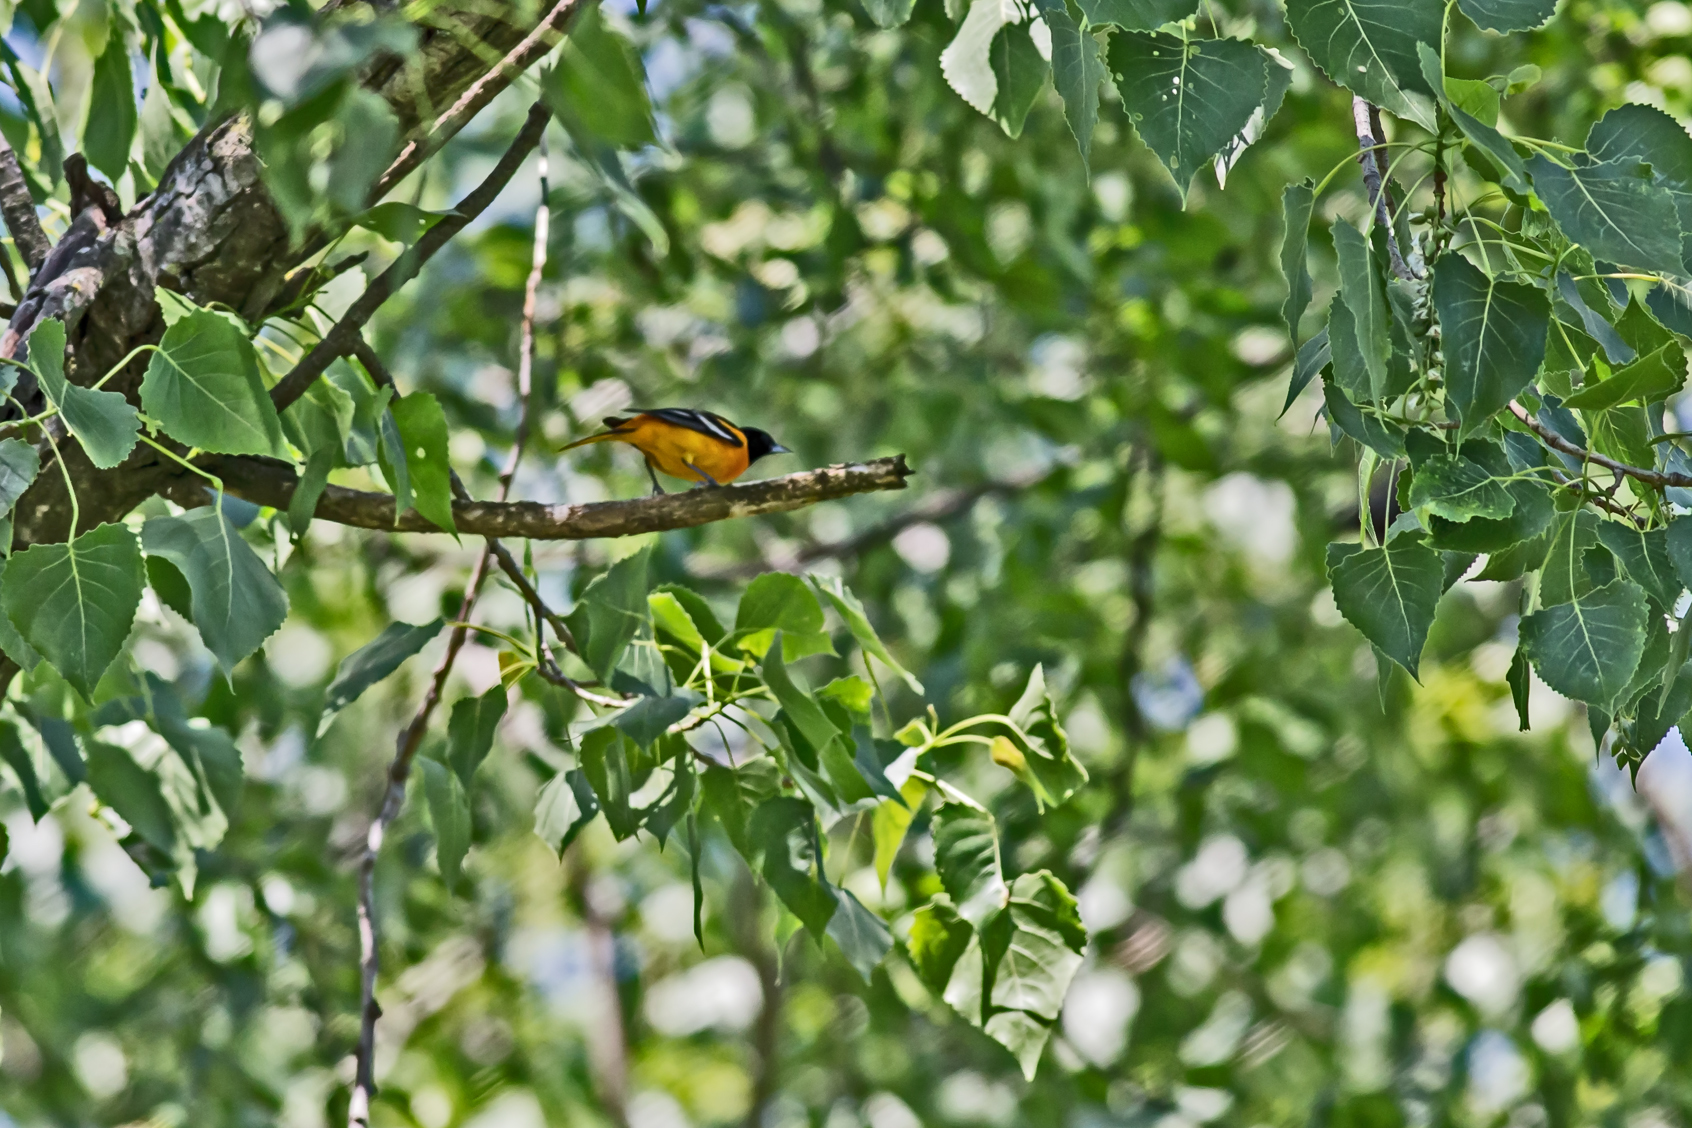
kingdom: Animalia
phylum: Chordata
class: Aves
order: Passeriformes
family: Icteridae
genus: Icterus
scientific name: Icterus galbula
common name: Baltimore oriole
